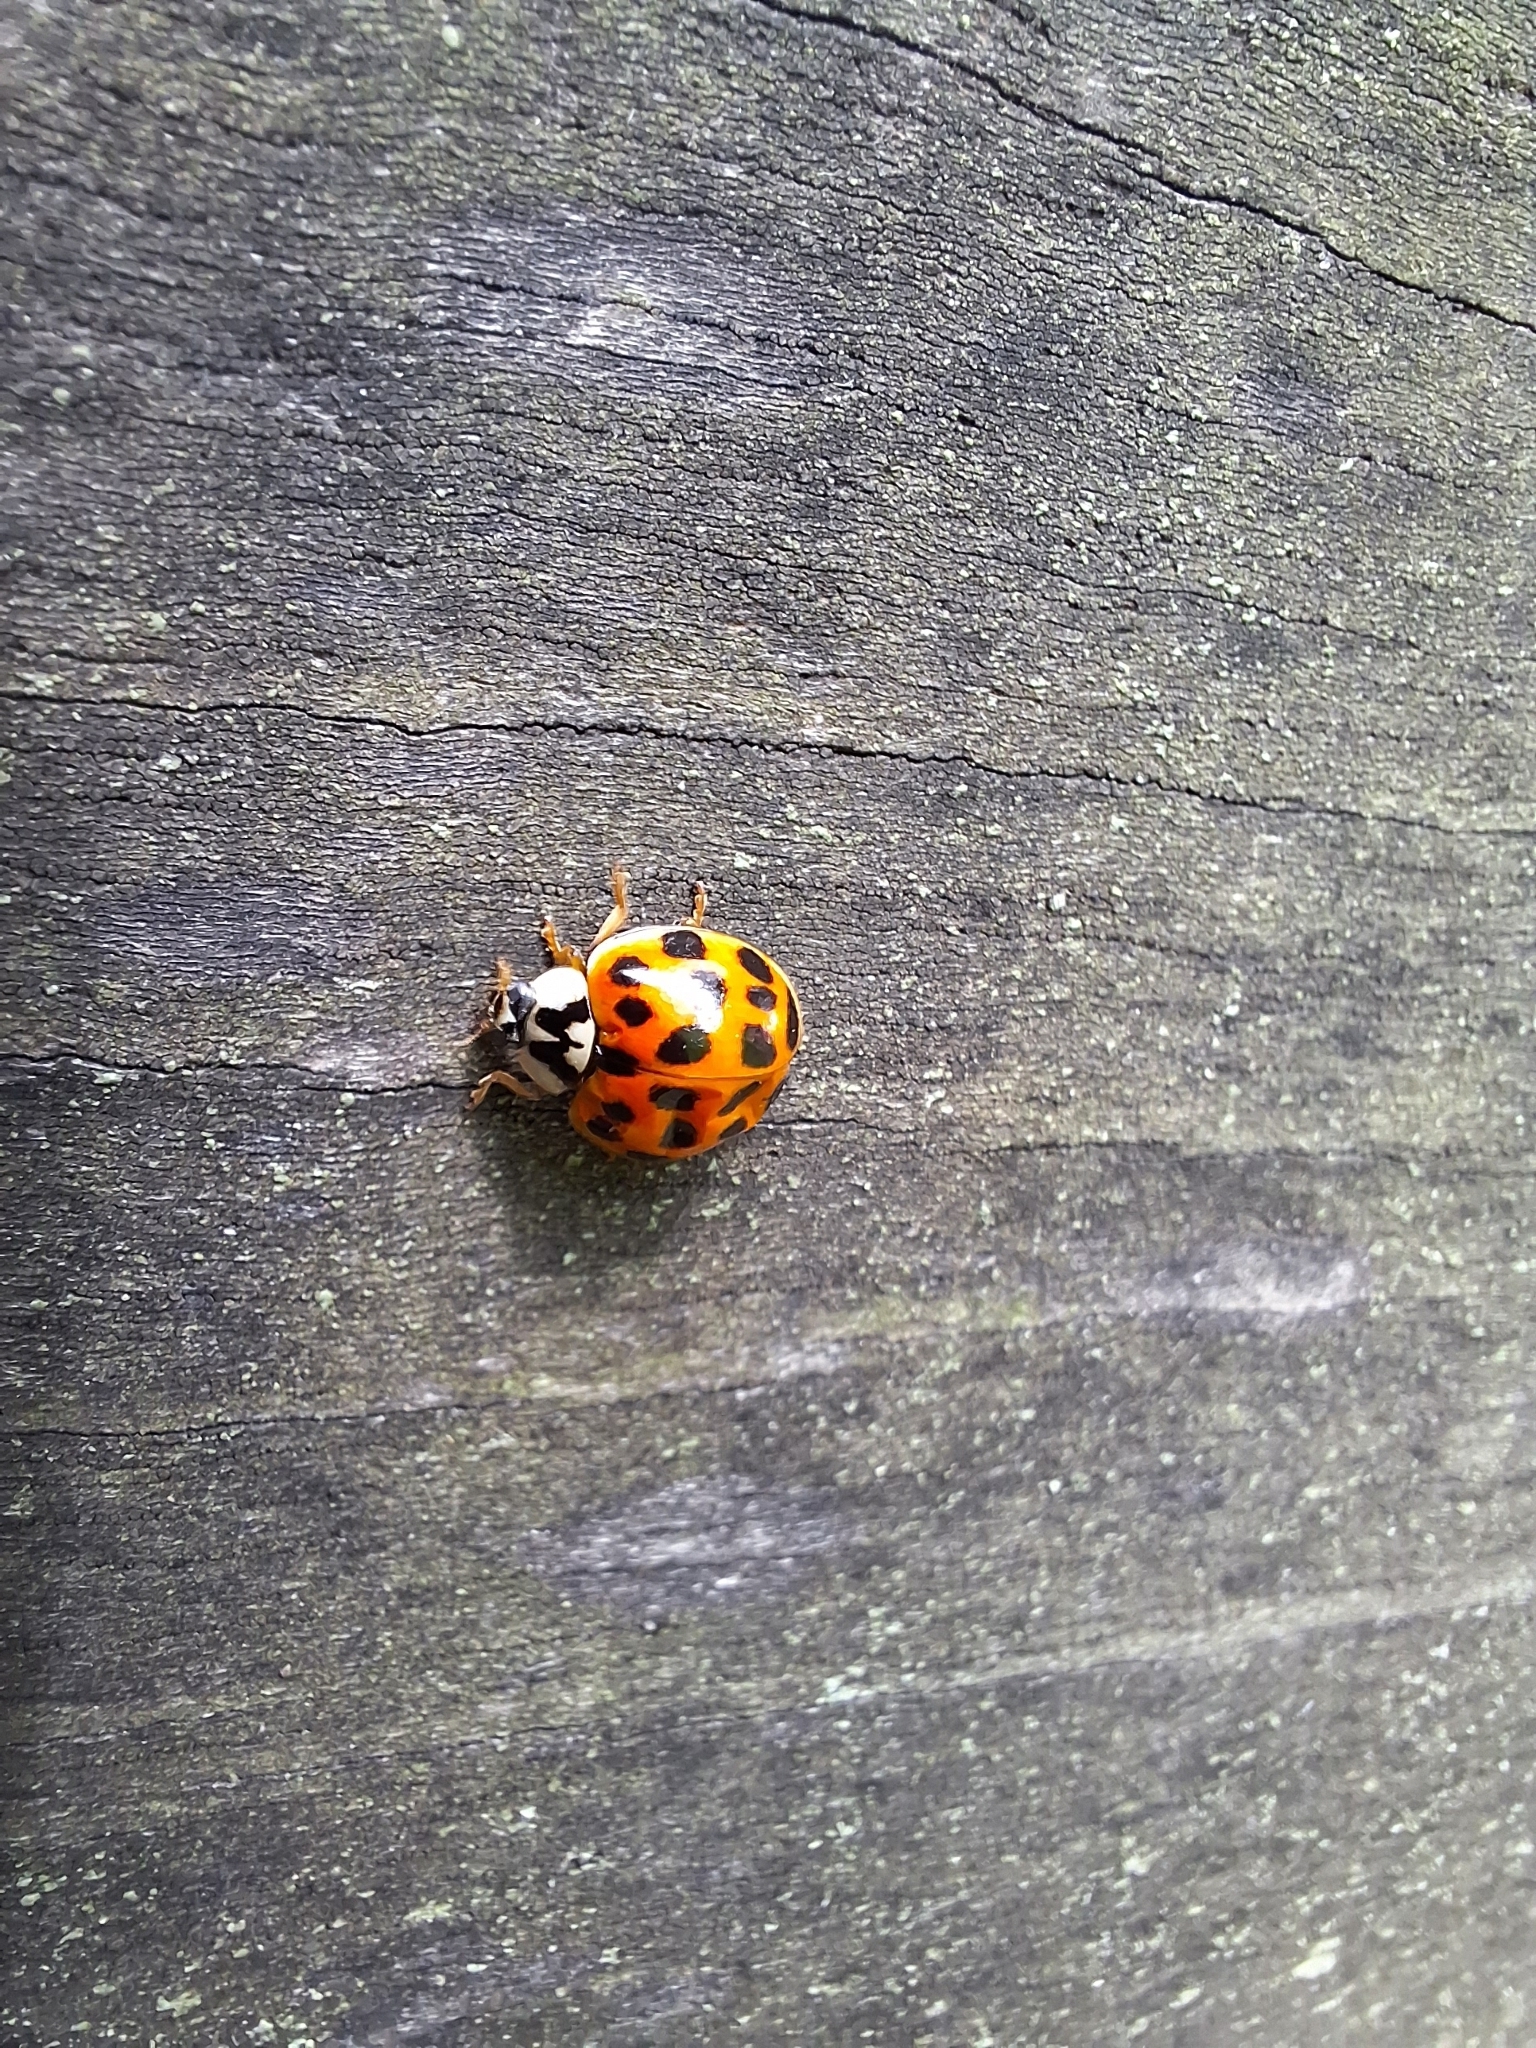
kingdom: Animalia
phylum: Arthropoda
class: Insecta
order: Coleoptera
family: Coccinellidae
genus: Harmonia
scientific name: Harmonia axyridis
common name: Harlequin ladybird
